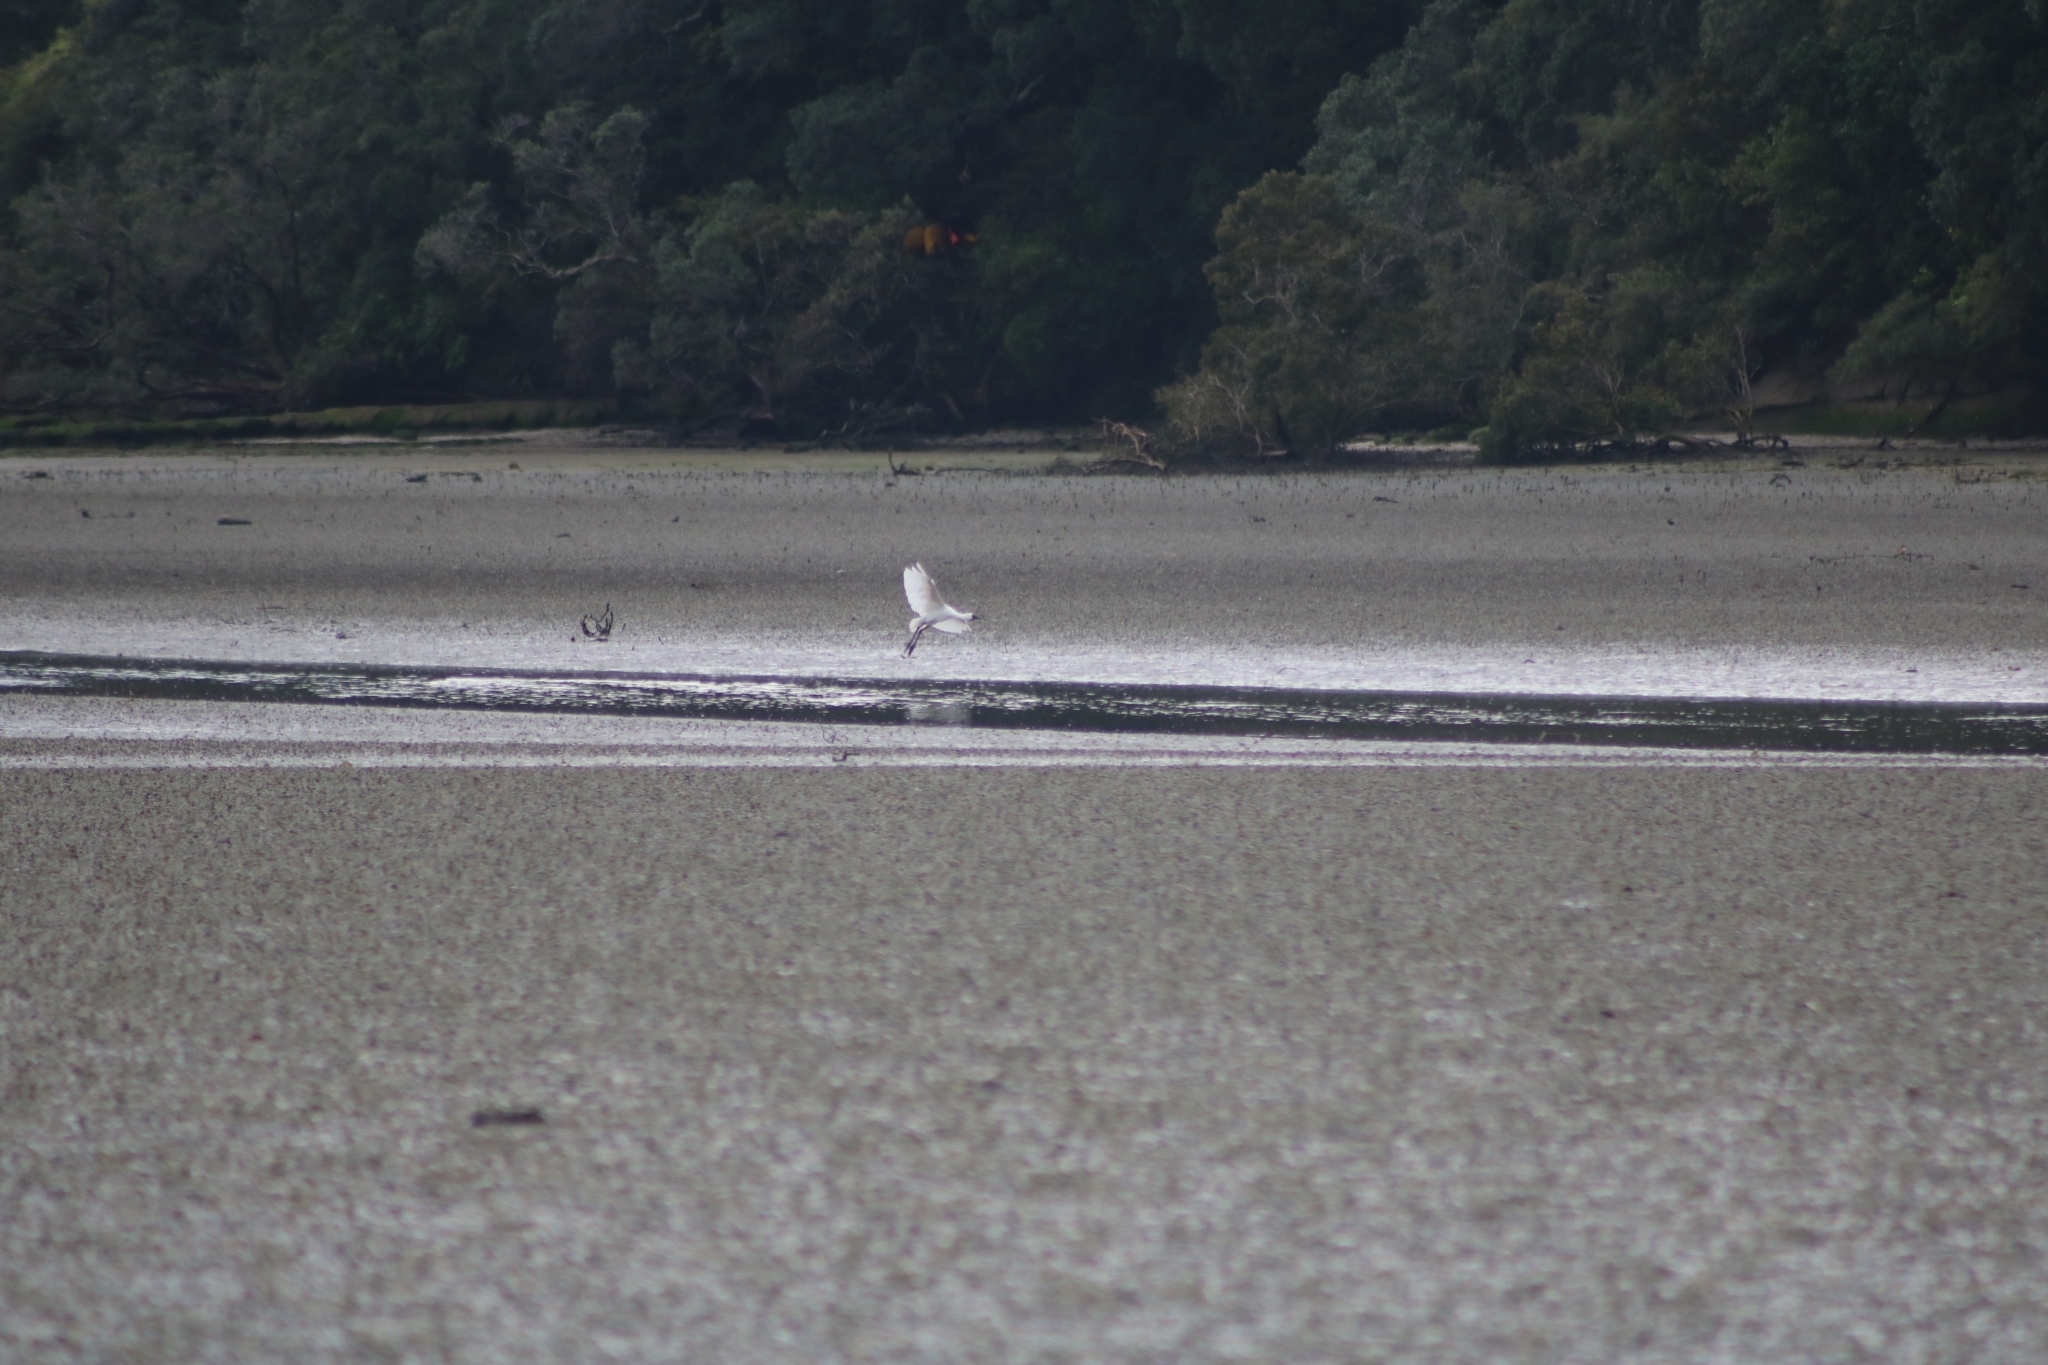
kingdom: Animalia
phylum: Chordata
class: Aves
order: Pelecaniformes
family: Threskiornithidae
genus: Platalea
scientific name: Platalea regia
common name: Royal spoonbill
